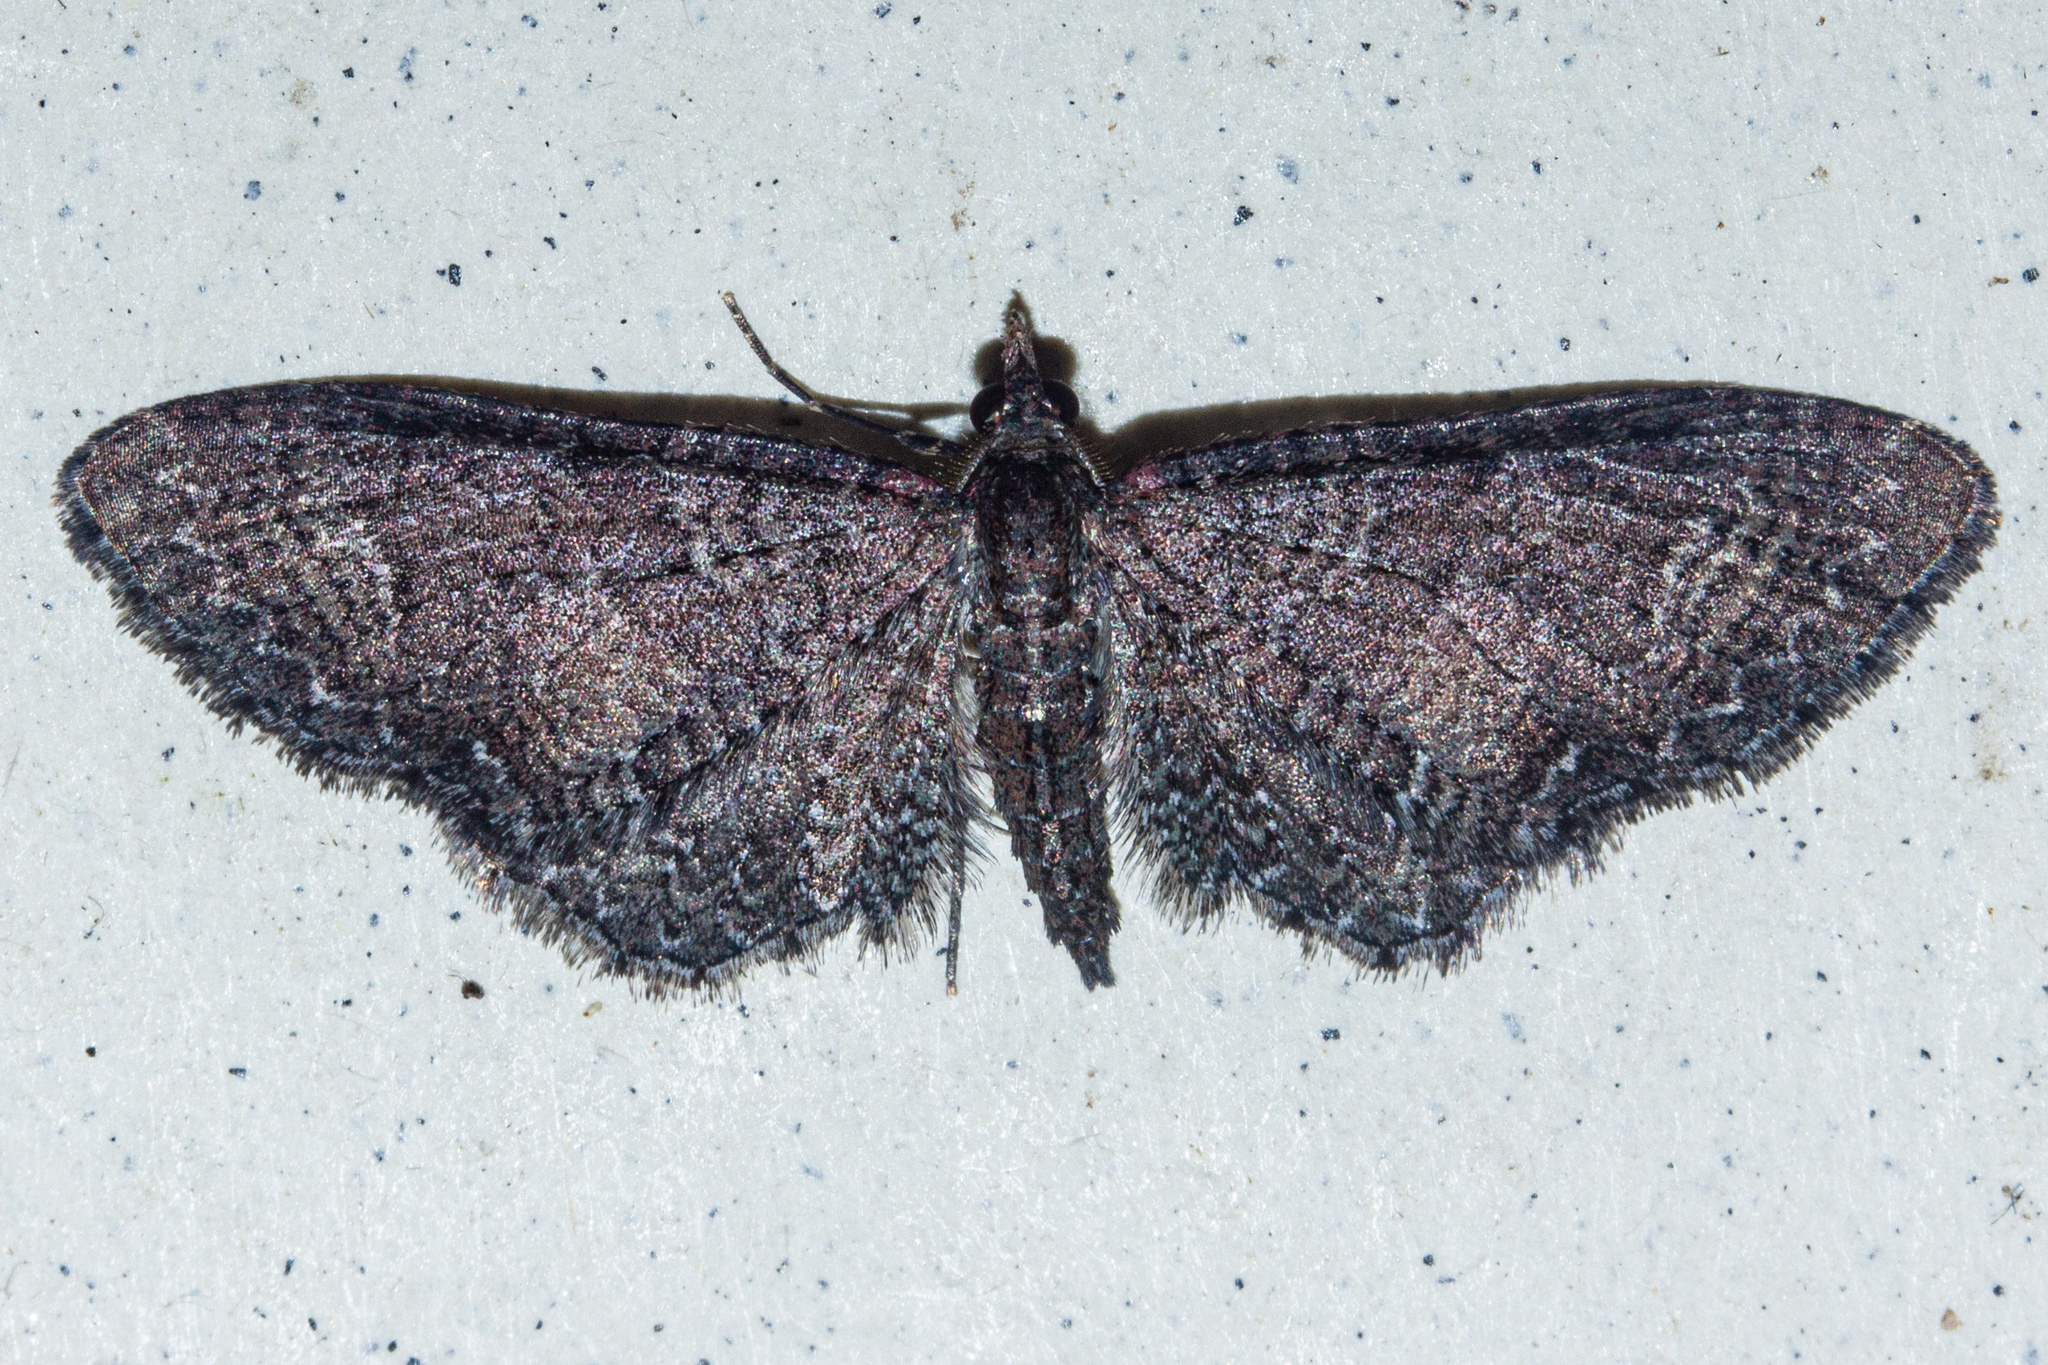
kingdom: Animalia
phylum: Arthropoda
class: Insecta
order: Lepidoptera
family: Geometridae
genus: Pasiphila
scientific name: Pasiphila dryas
